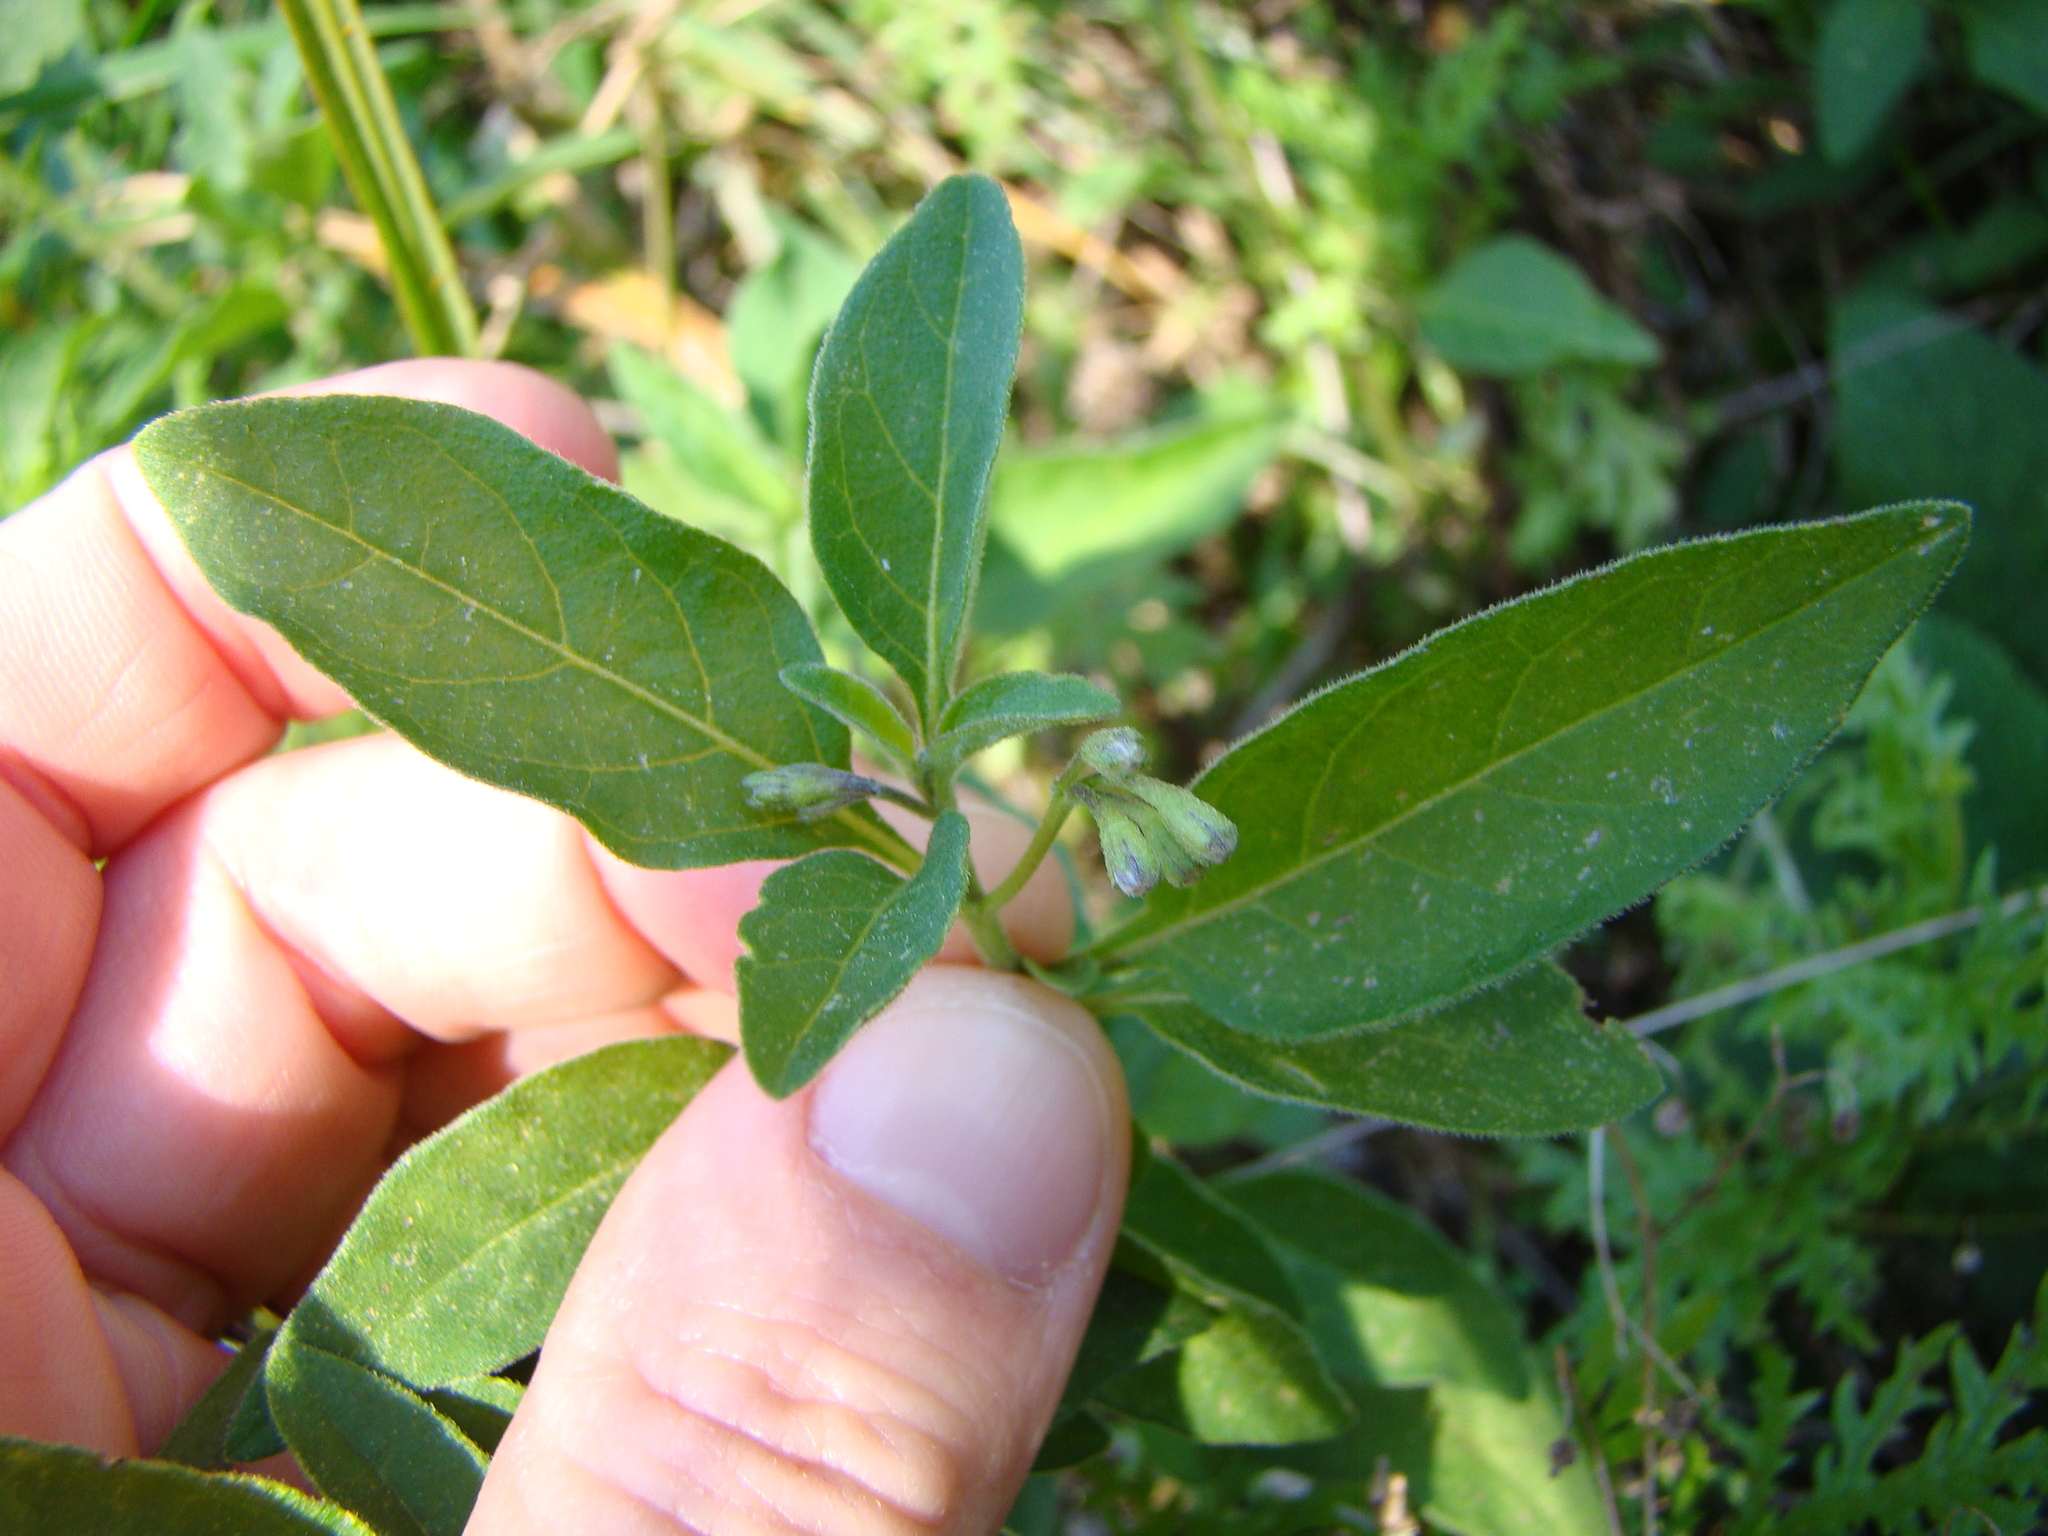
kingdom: Plantae
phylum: Tracheophyta
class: Magnoliopsida
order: Solanales
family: Solanaceae
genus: Solanum
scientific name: Solanum chenopodioides
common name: Tall nightshade
